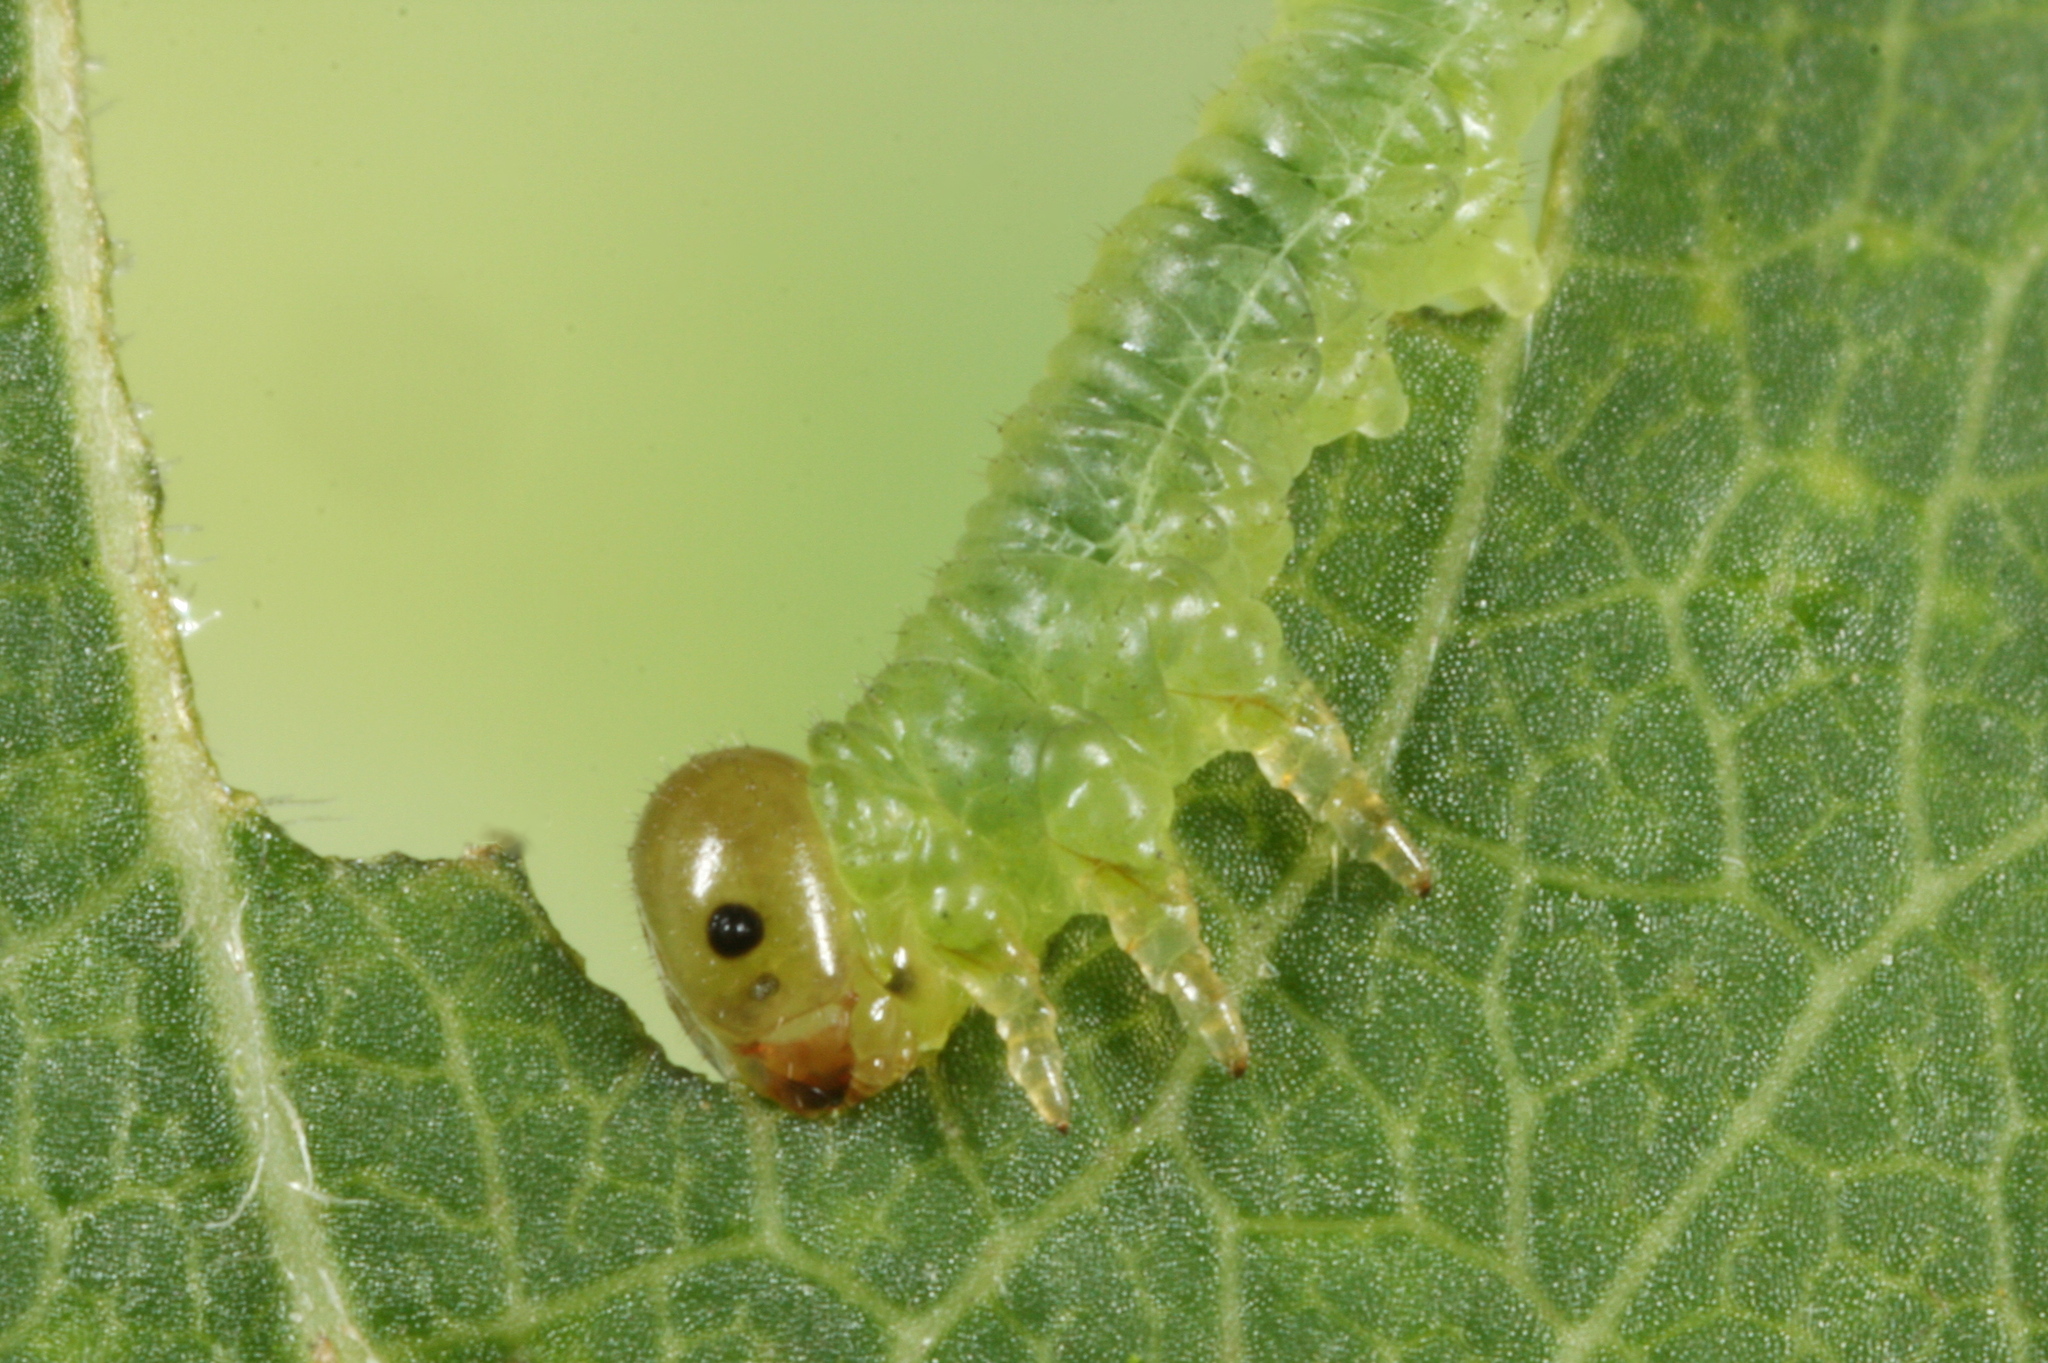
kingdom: Animalia
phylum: Arthropoda
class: Insecta
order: Hymenoptera
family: Tenthredinidae
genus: Nematus
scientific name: Nematus nigricornis
